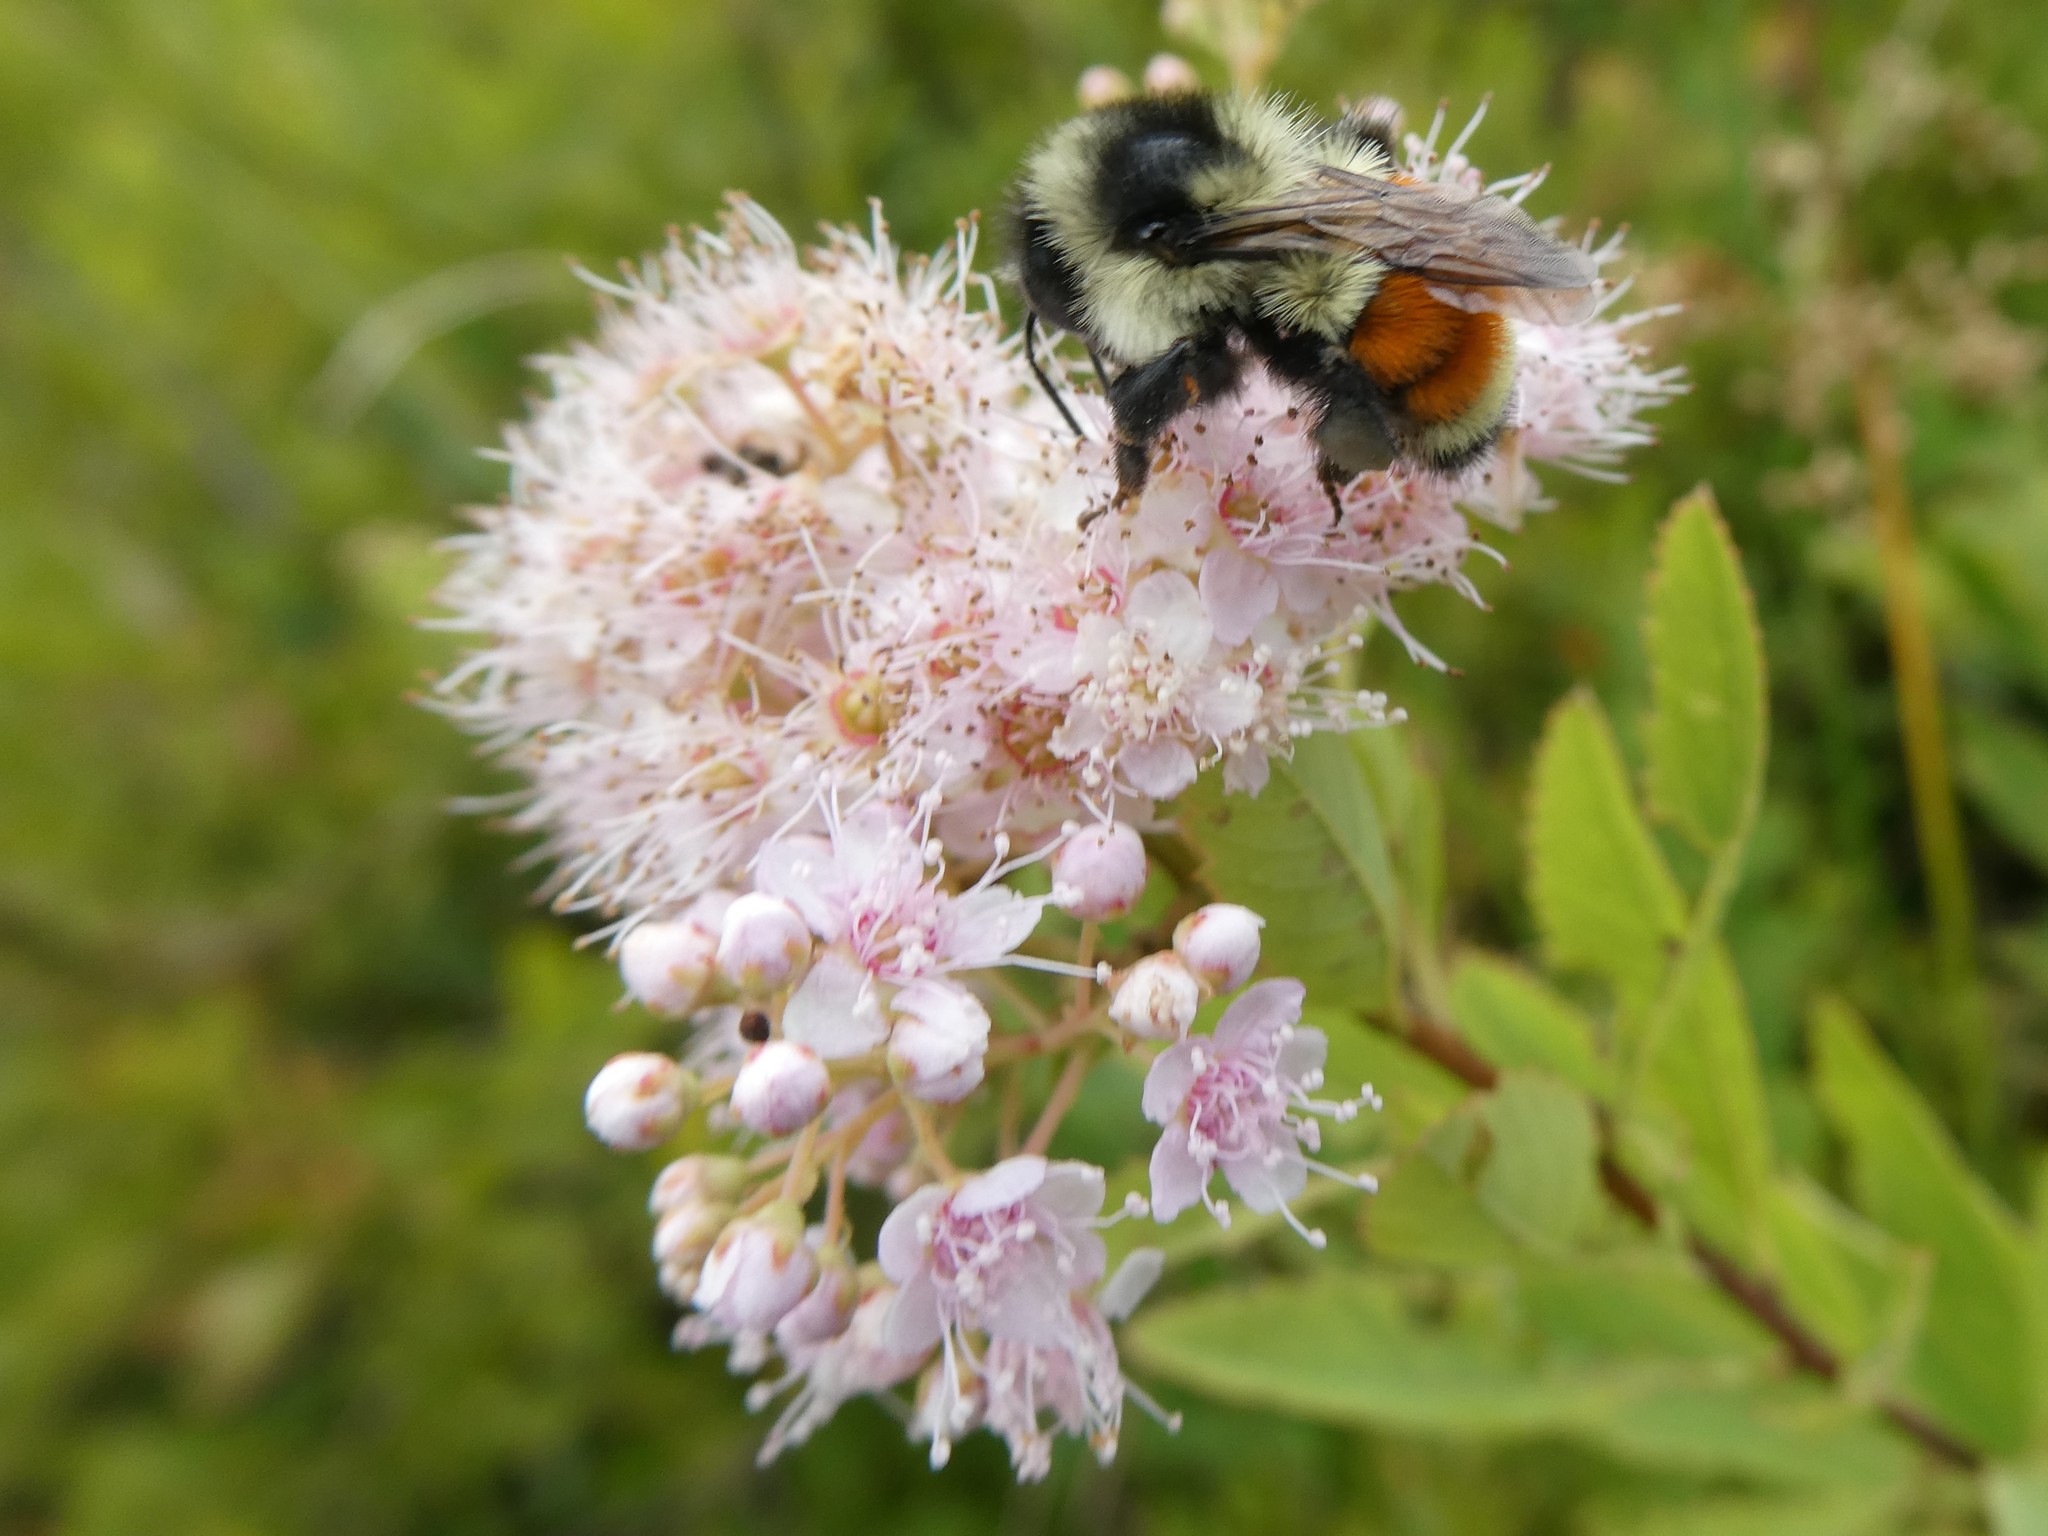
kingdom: Animalia
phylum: Arthropoda
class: Insecta
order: Hymenoptera
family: Apidae
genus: Bombus
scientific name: Bombus ternarius
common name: Tri-colored bumble bee
